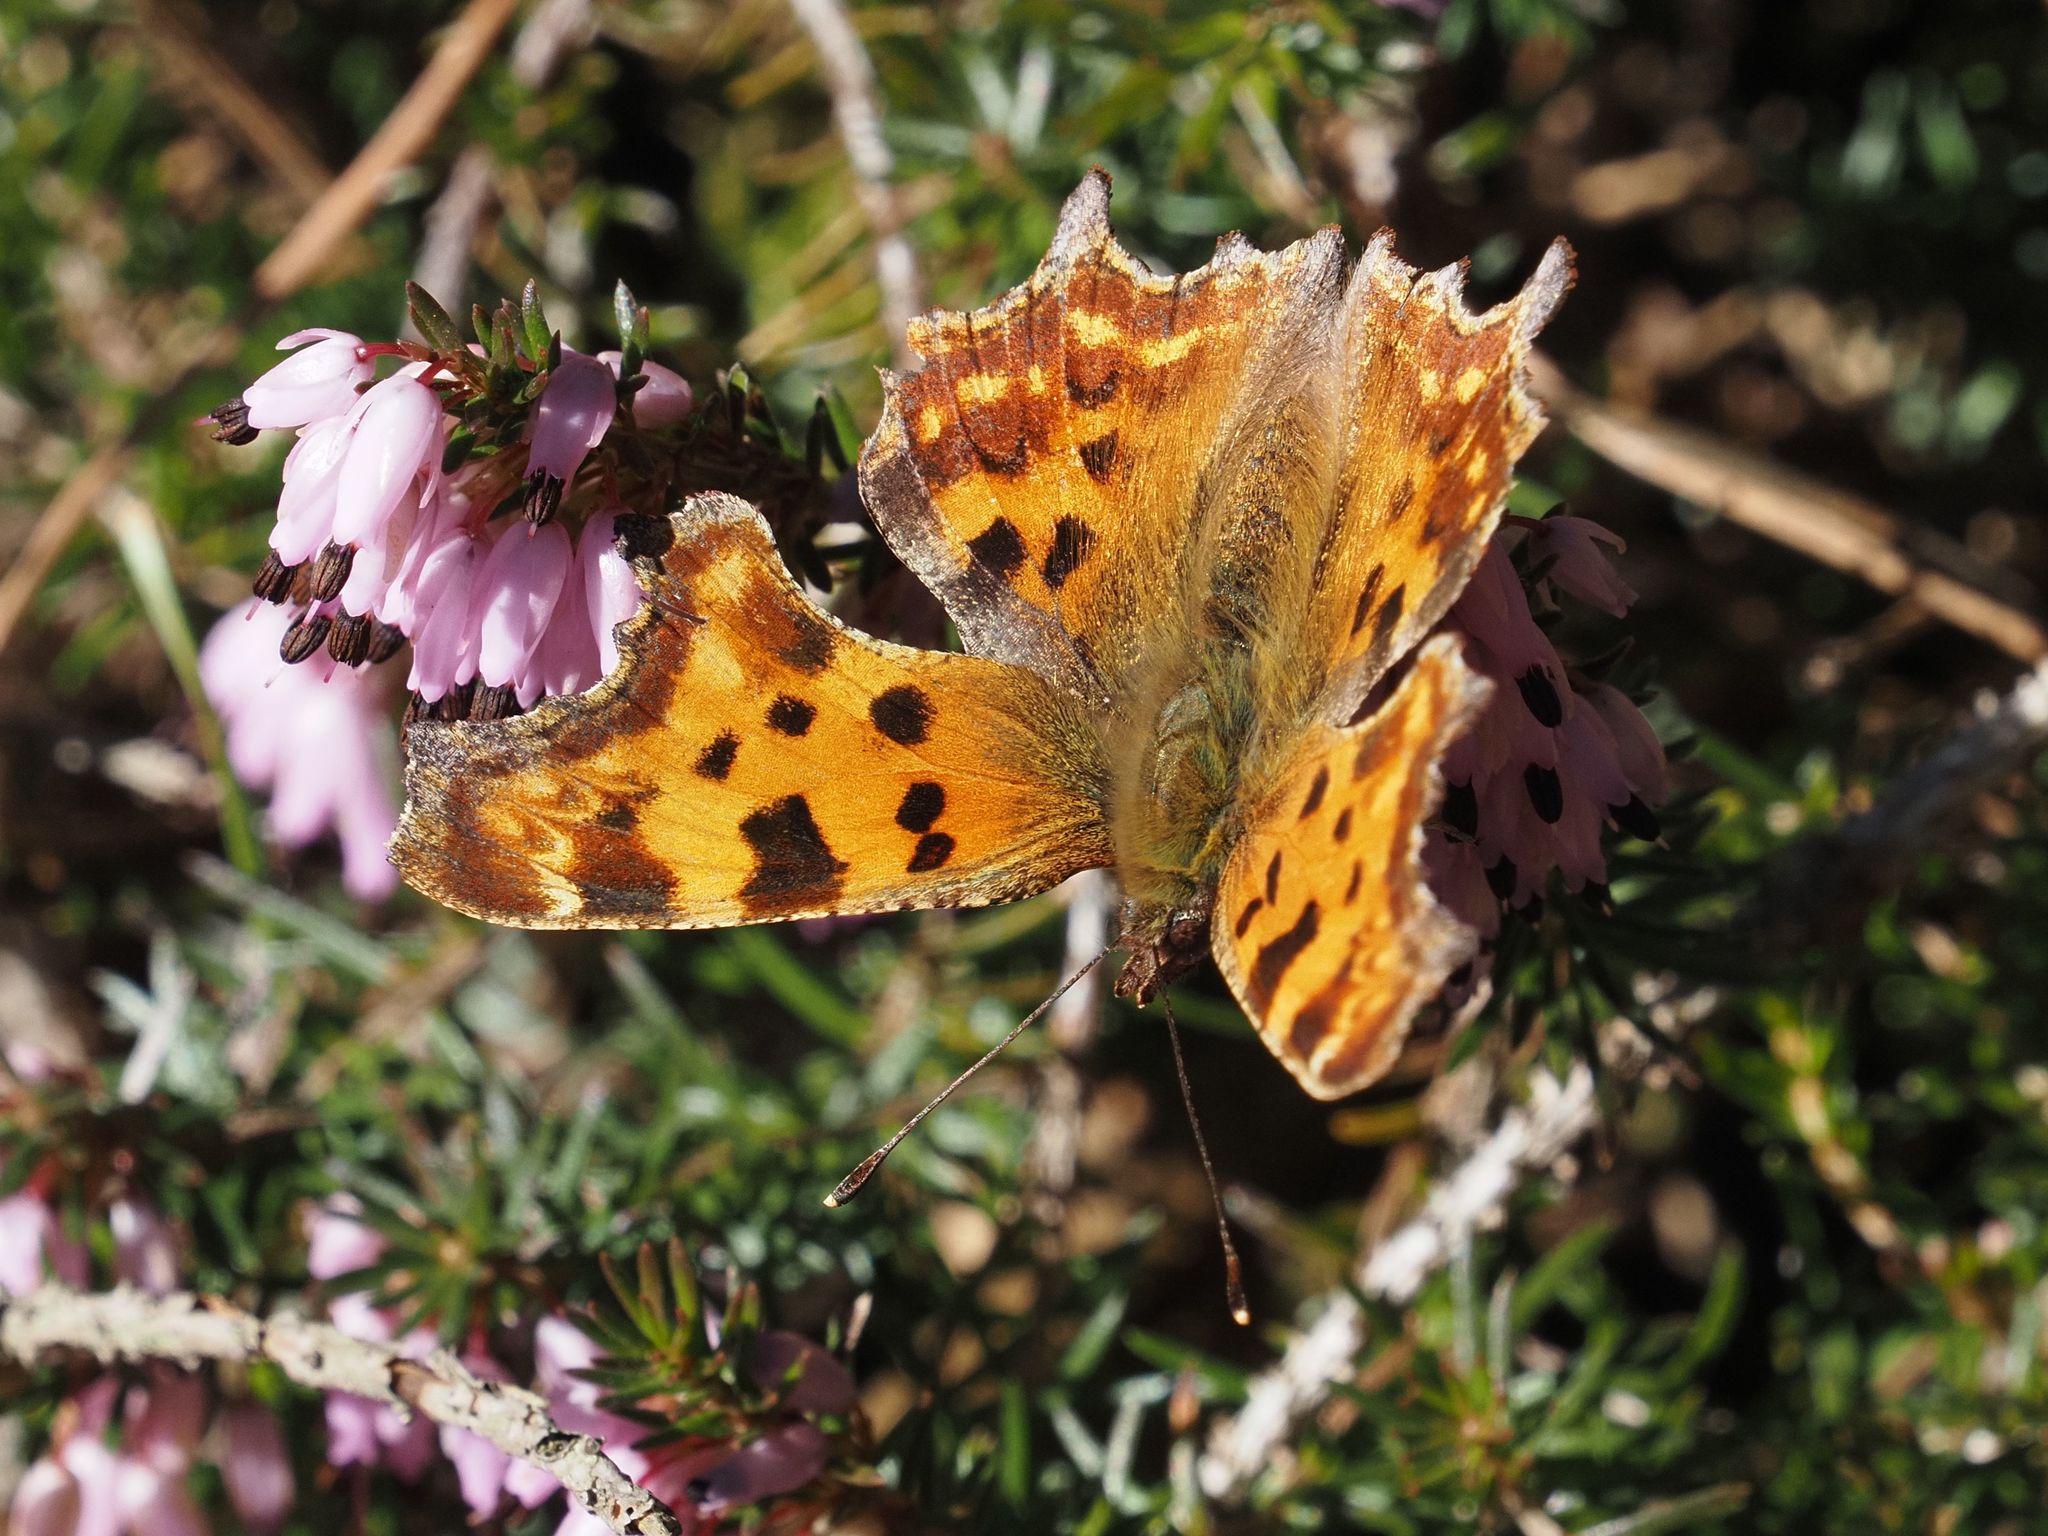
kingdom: Animalia
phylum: Arthropoda
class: Insecta
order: Lepidoptera
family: Nymphalidae
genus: Polygonia
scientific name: Polygonia c-album
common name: Comma
